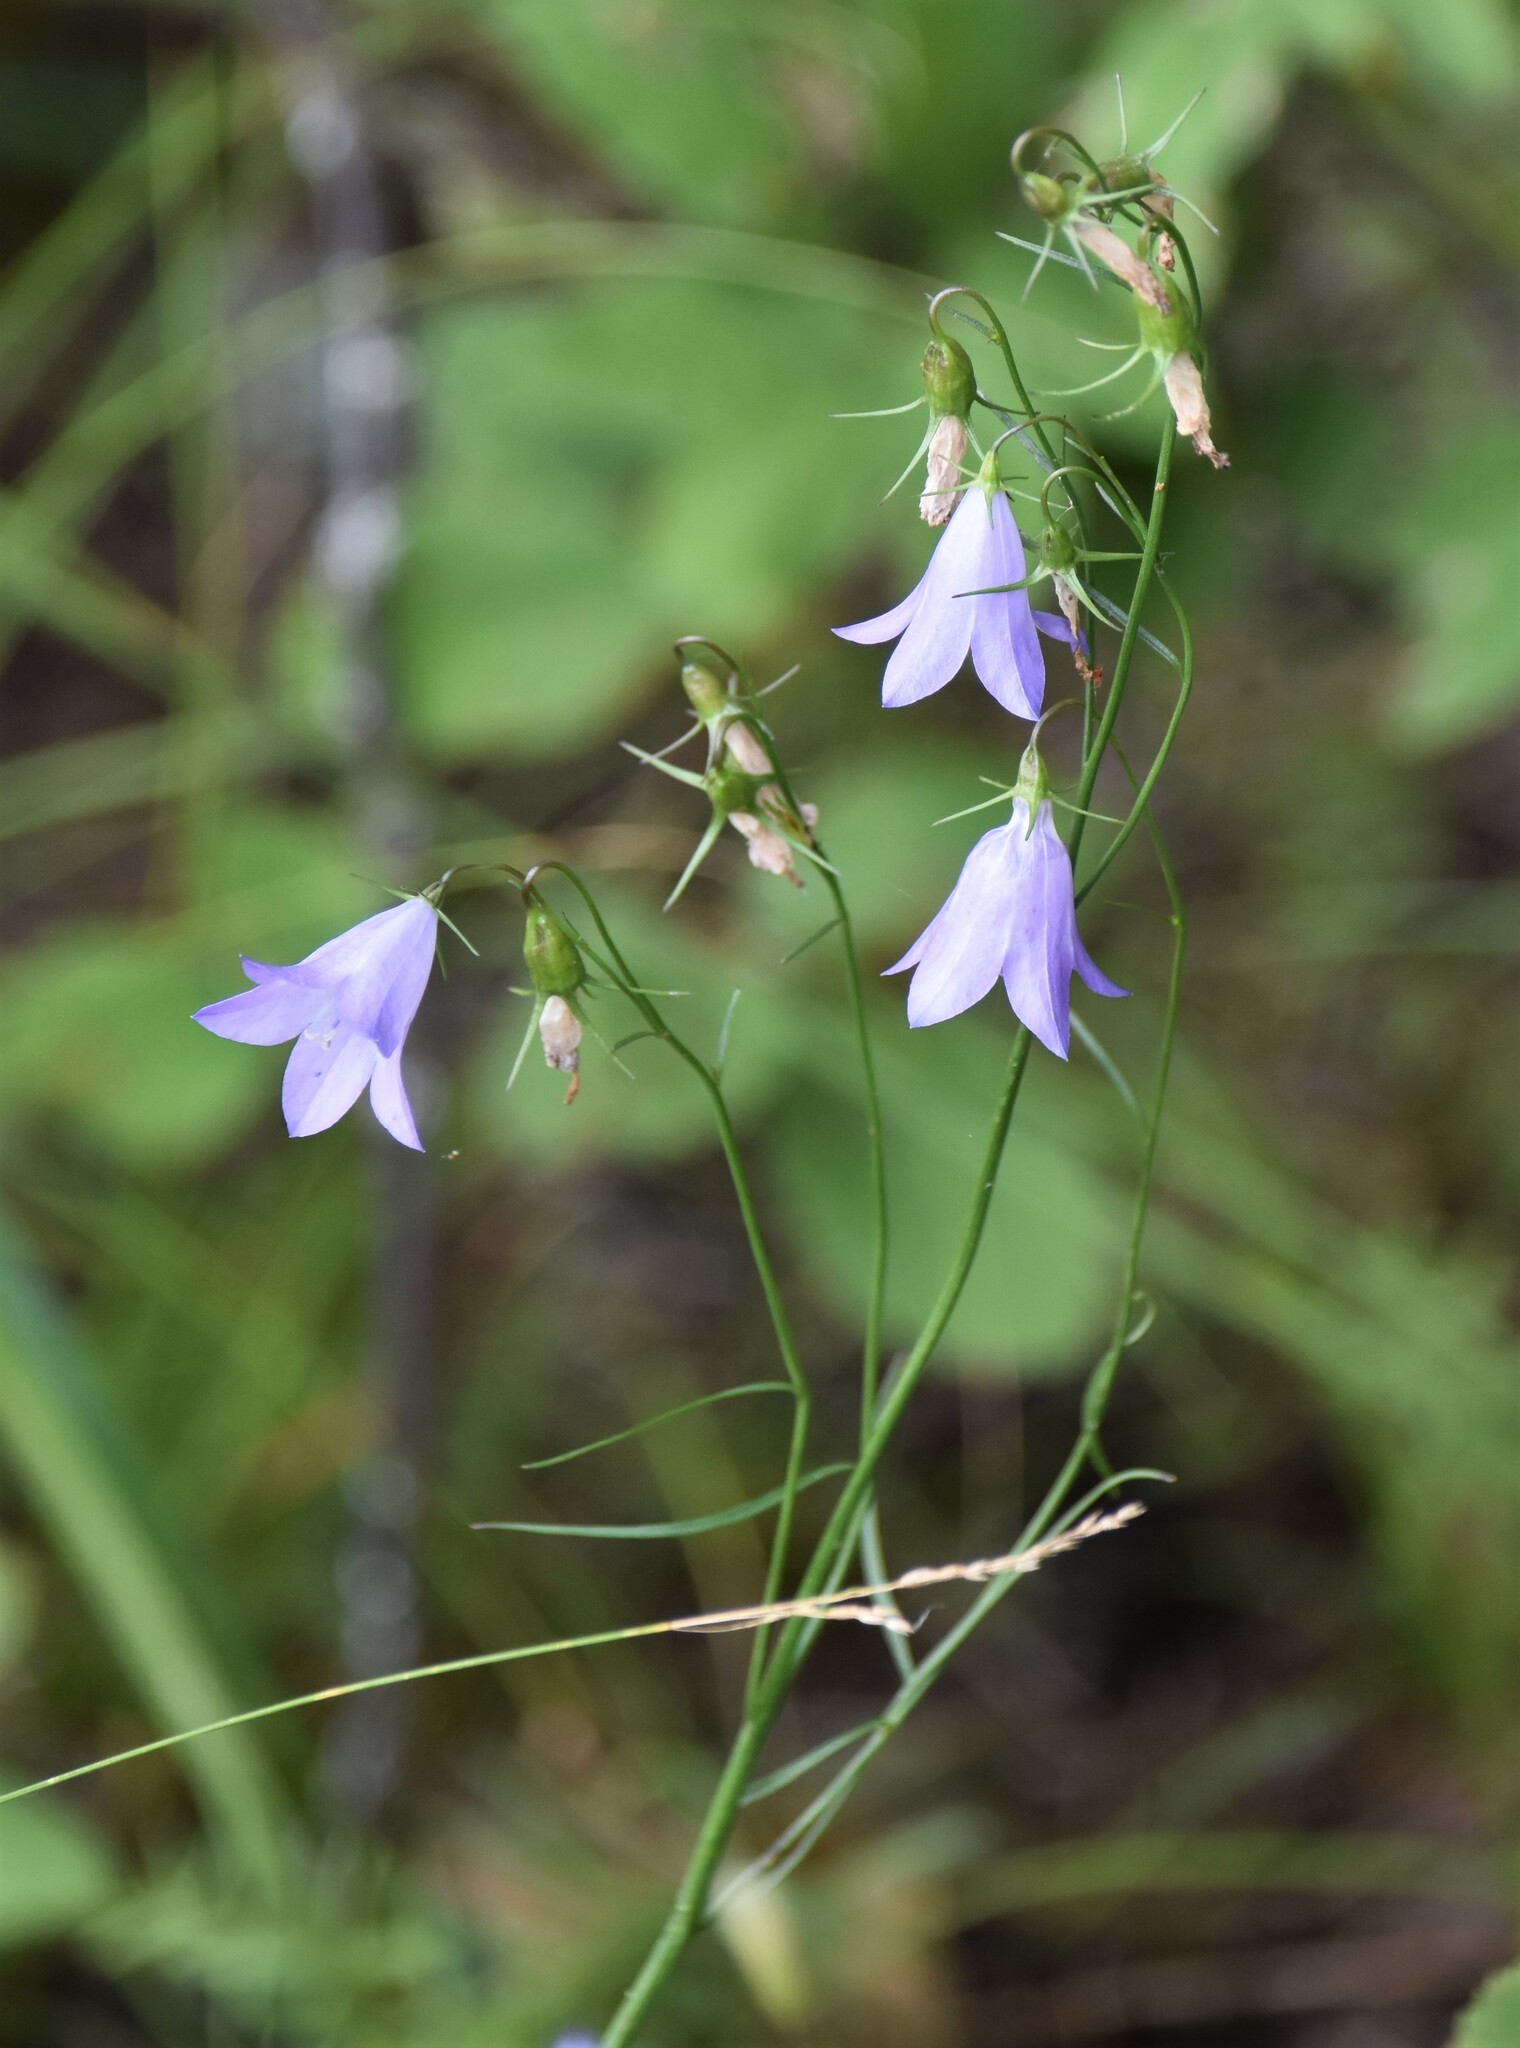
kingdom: Plantae
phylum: Tracheophyta
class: Magnoliopsida
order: Asterales
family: Campanulaceae
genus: Campanula
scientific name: Campanula alaskana
